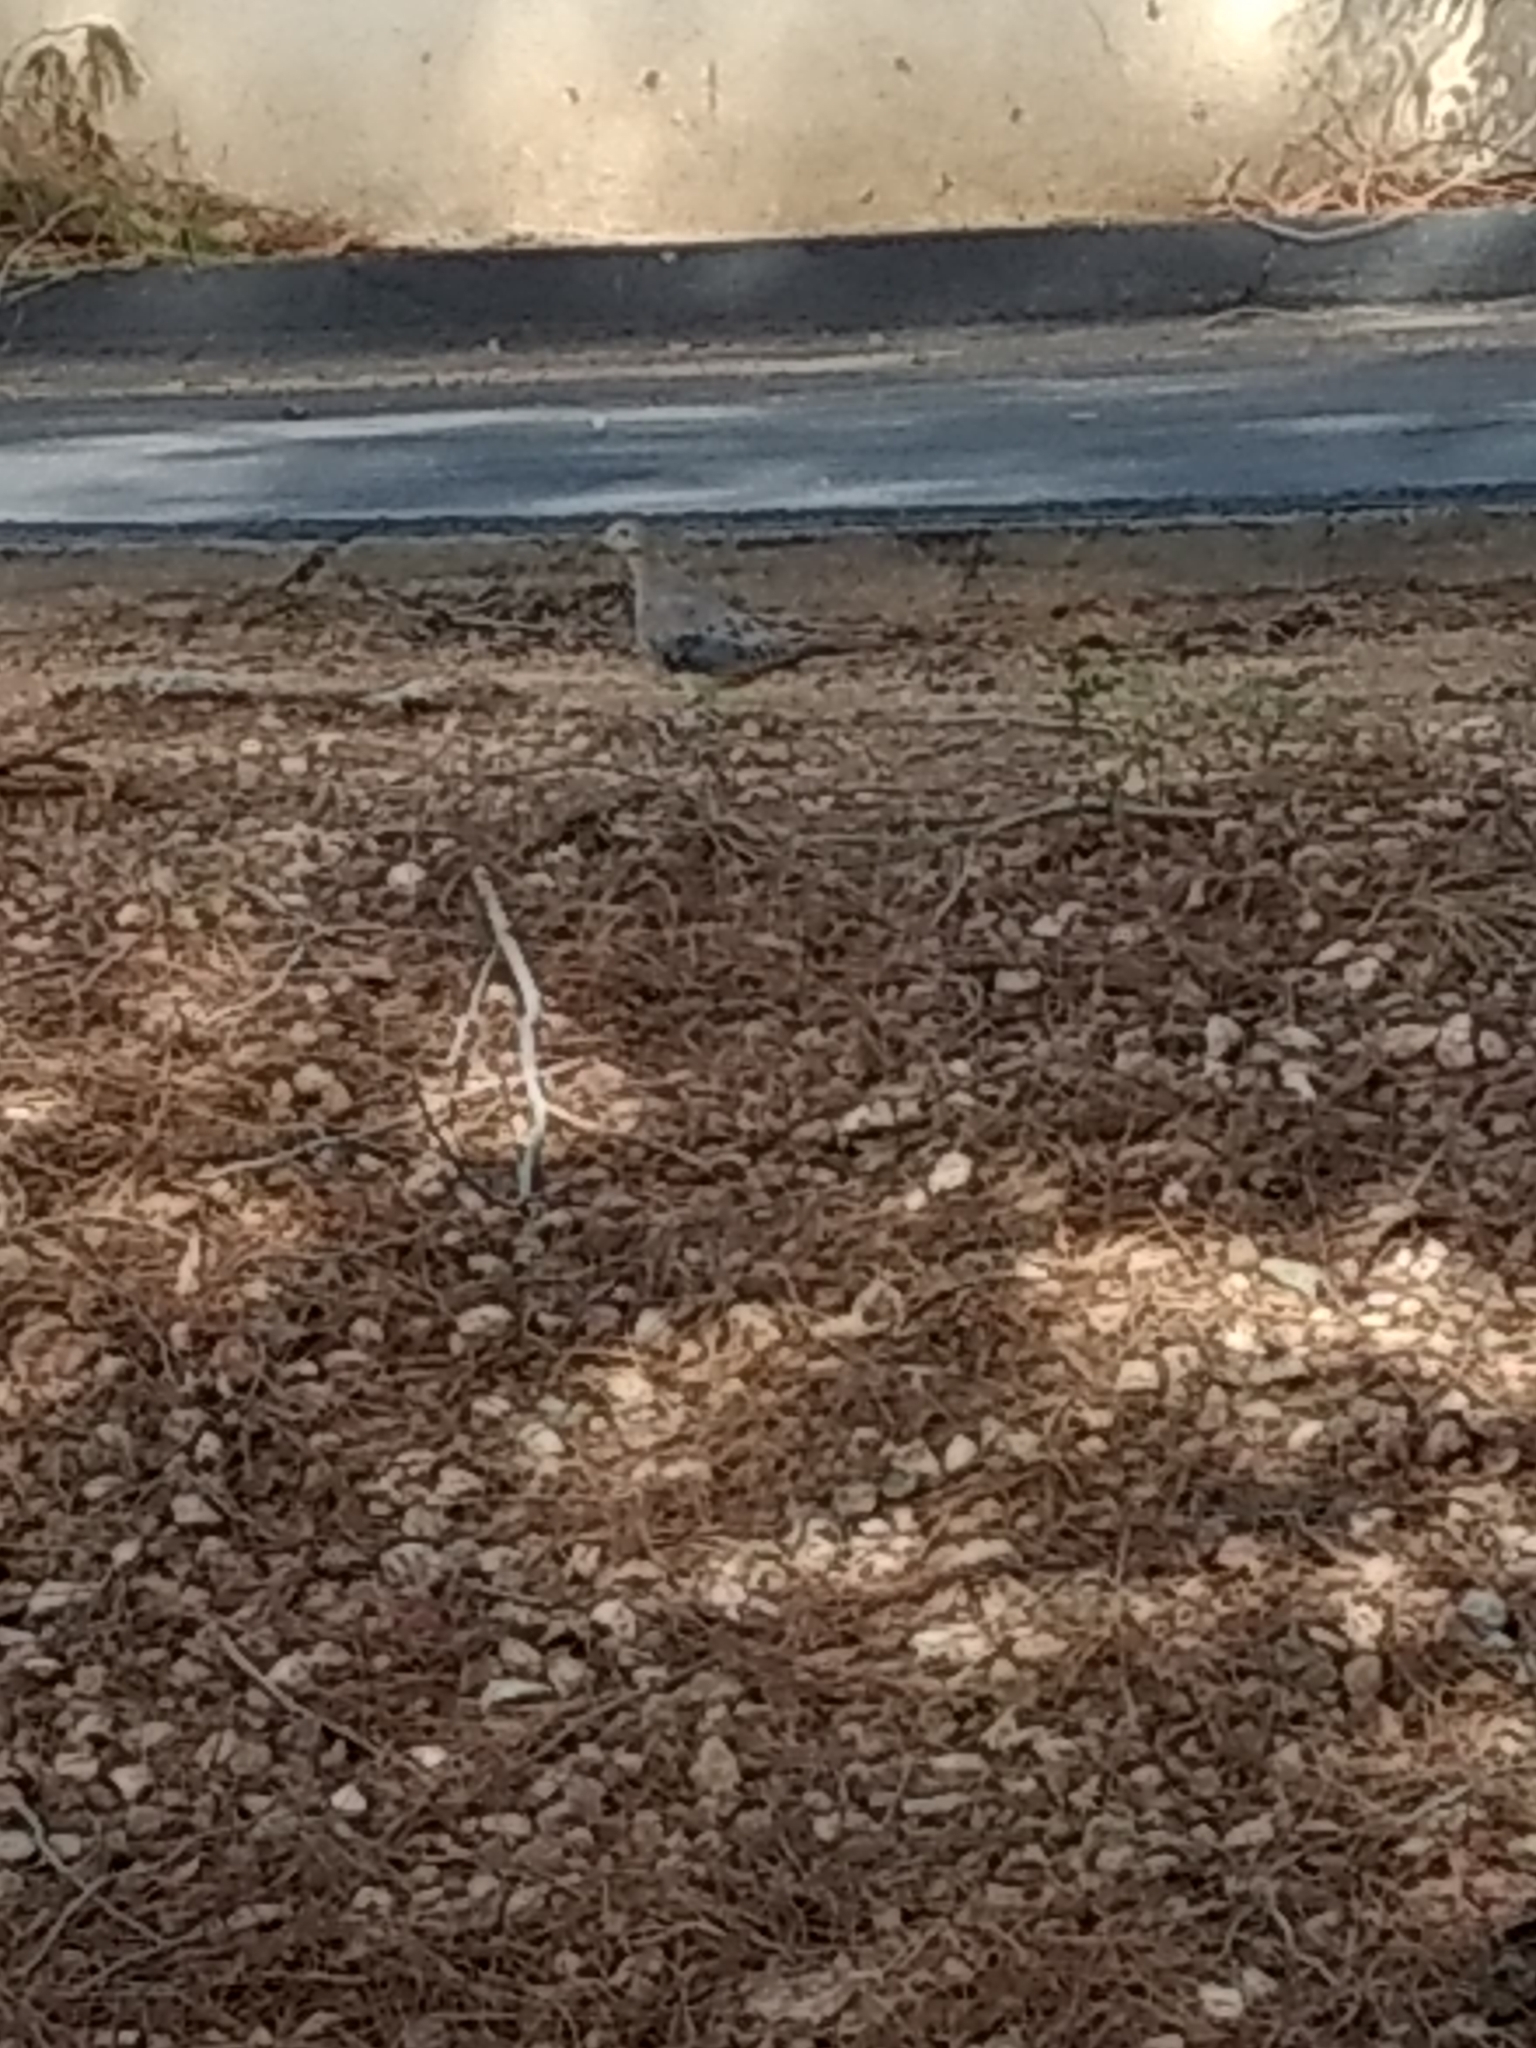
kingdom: Animalia
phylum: Chordata
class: Aves
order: Columbiformes
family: Columbidae
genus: Zenaida
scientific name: Zenaida macroura
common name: Mourning dove
